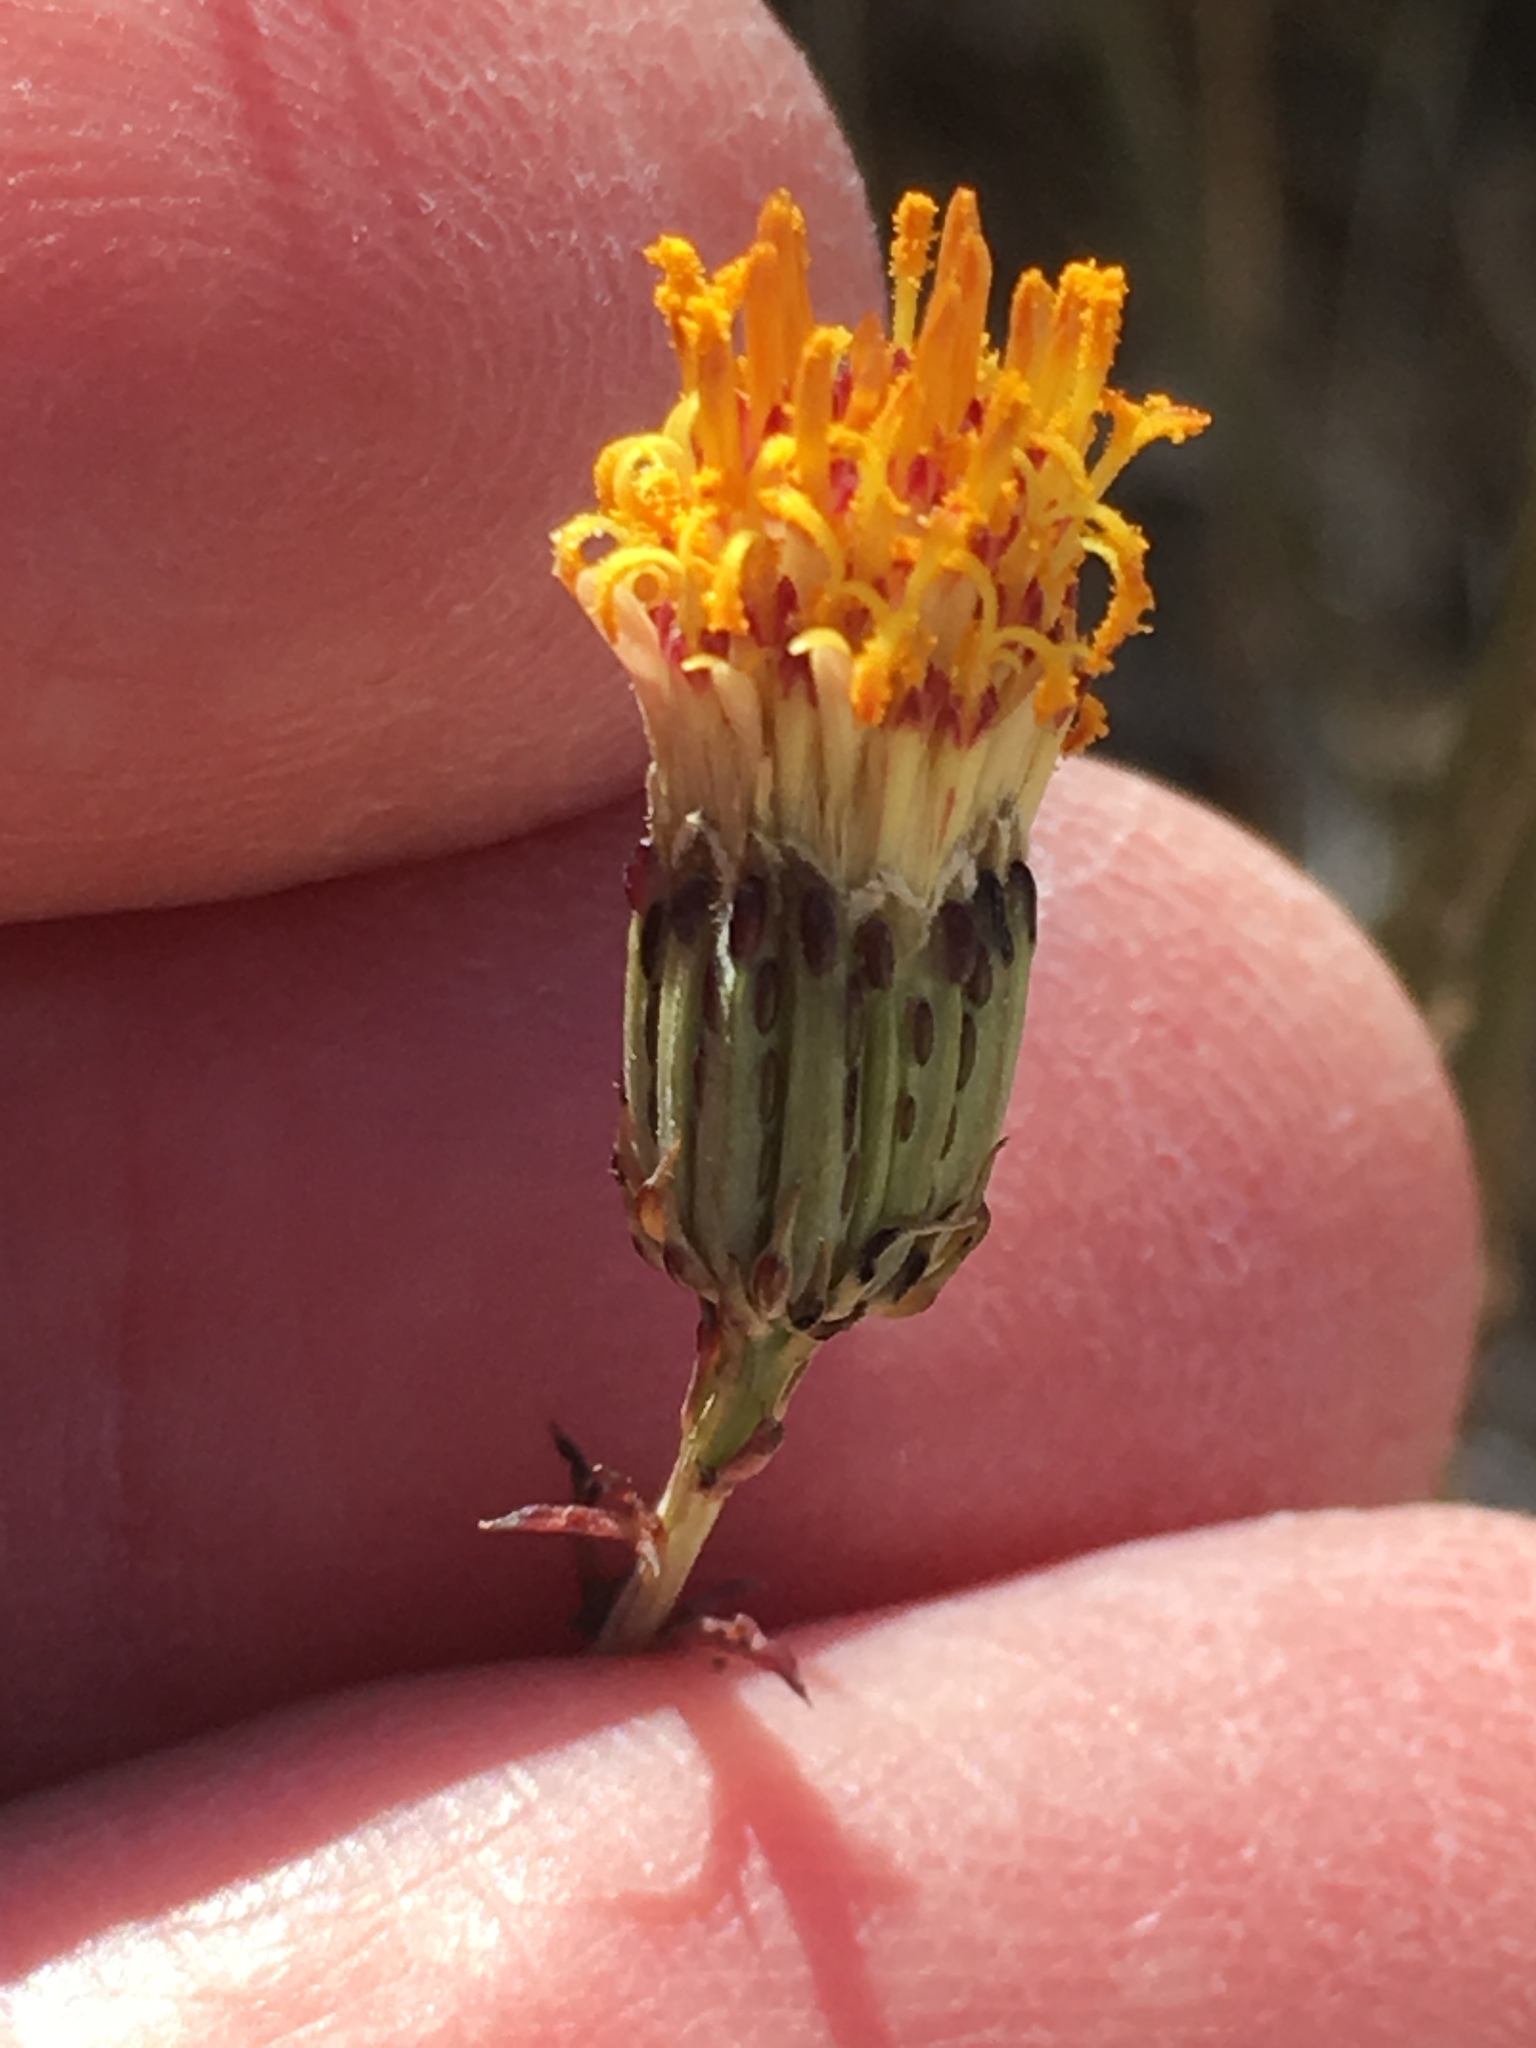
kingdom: Plantae
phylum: Tracheophyta
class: Magnoliopsida
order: Asterales
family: Asteraceae
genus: Adenophyllum
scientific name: Adenophyllum porophylloides
